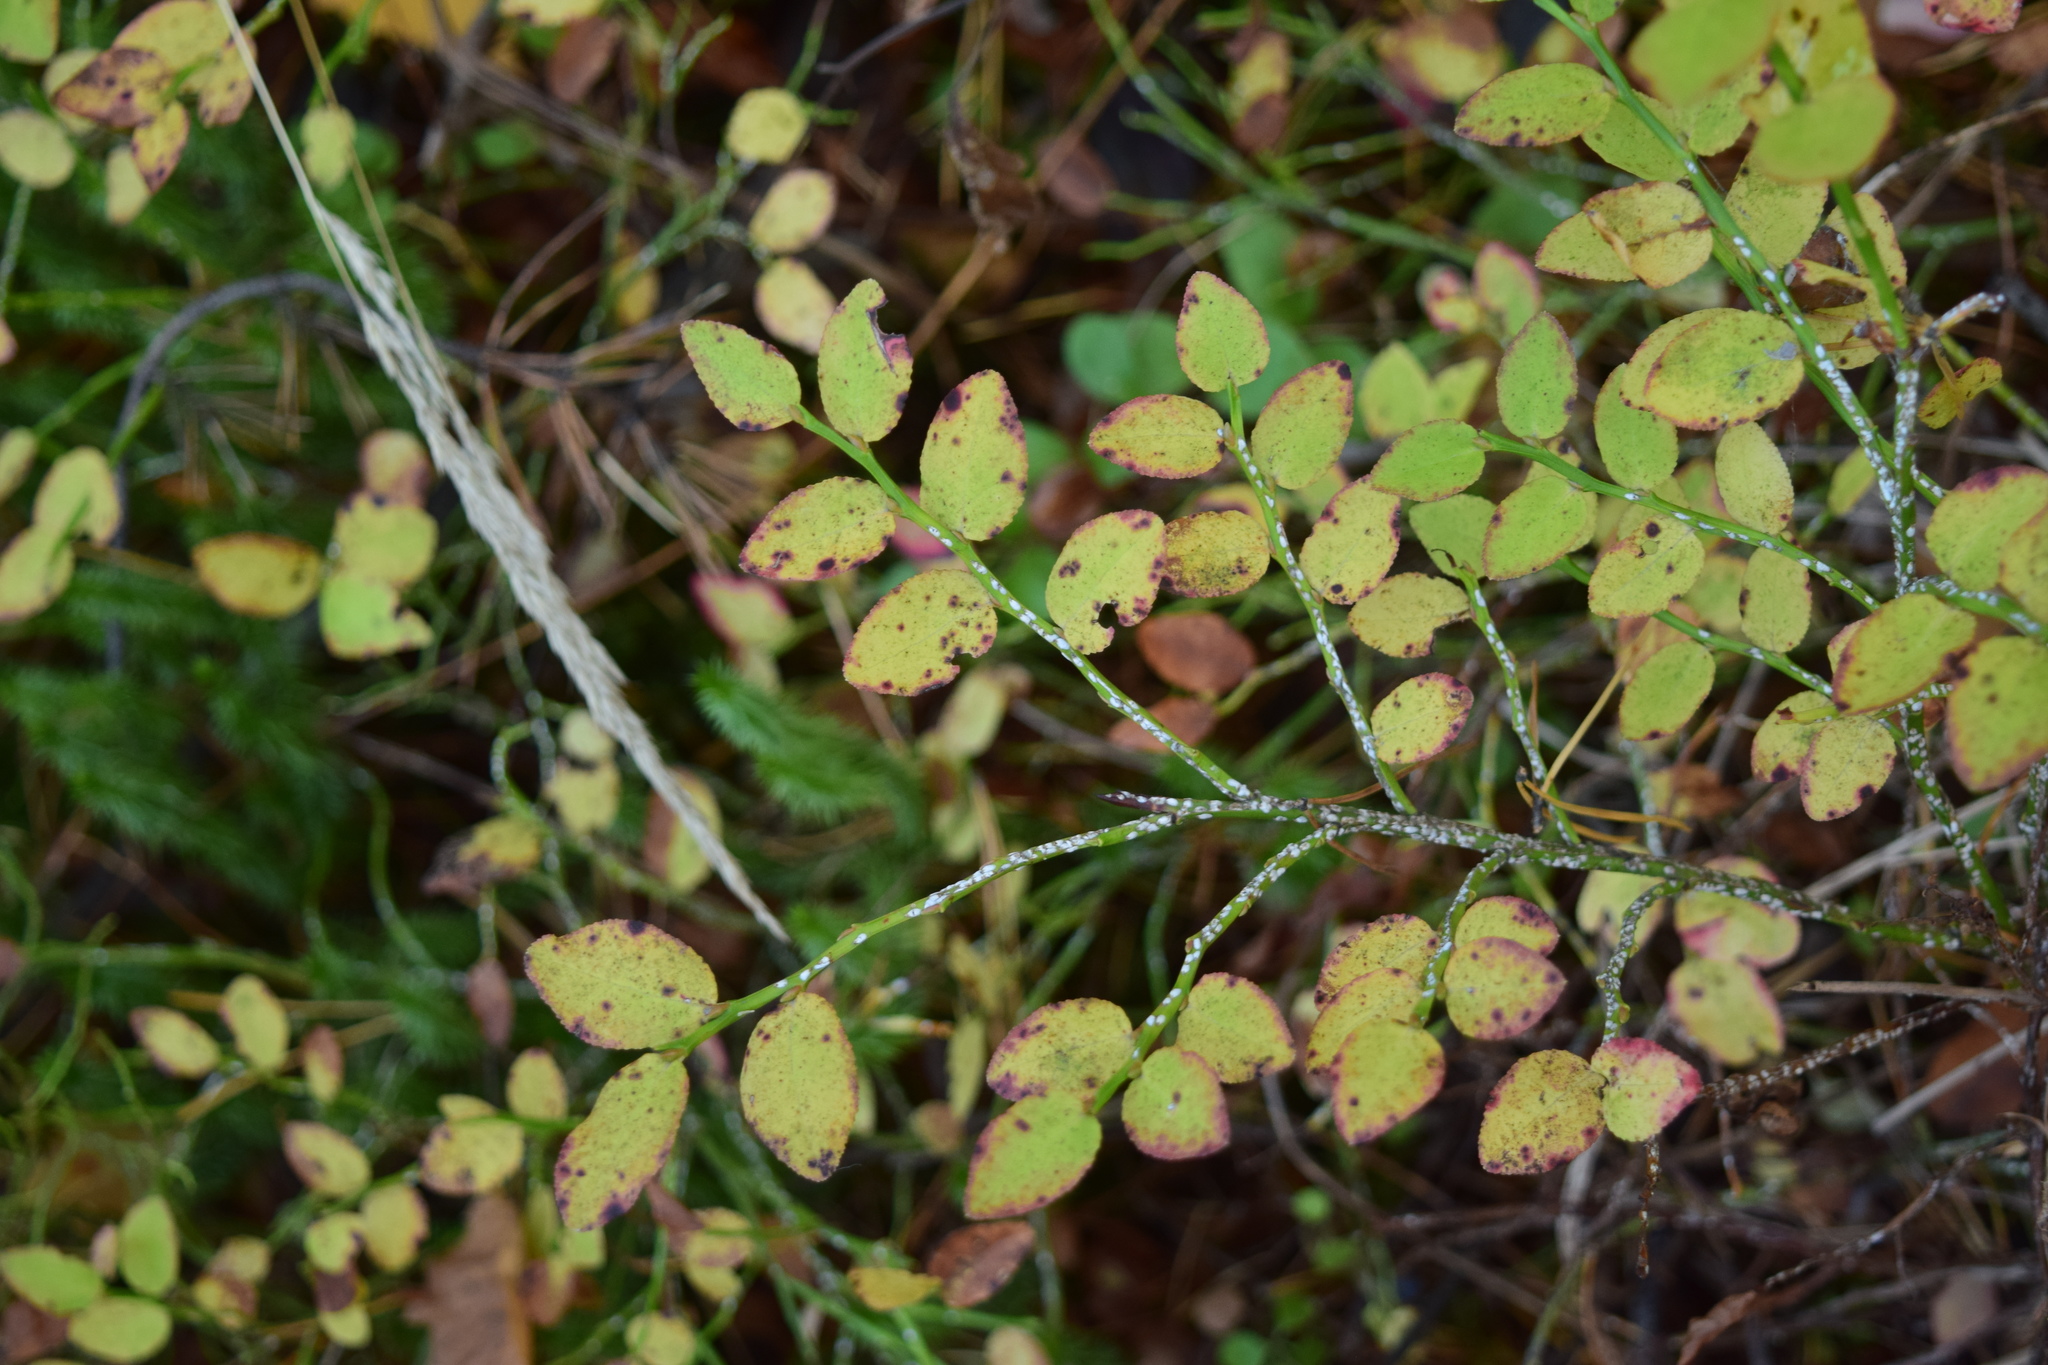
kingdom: Plantae
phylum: Tracheophyta
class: Magnoliopsida
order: Ericales
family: Ericaceae
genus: Vaccinium
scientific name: Vaccinium myrtillus
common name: Bilberry
